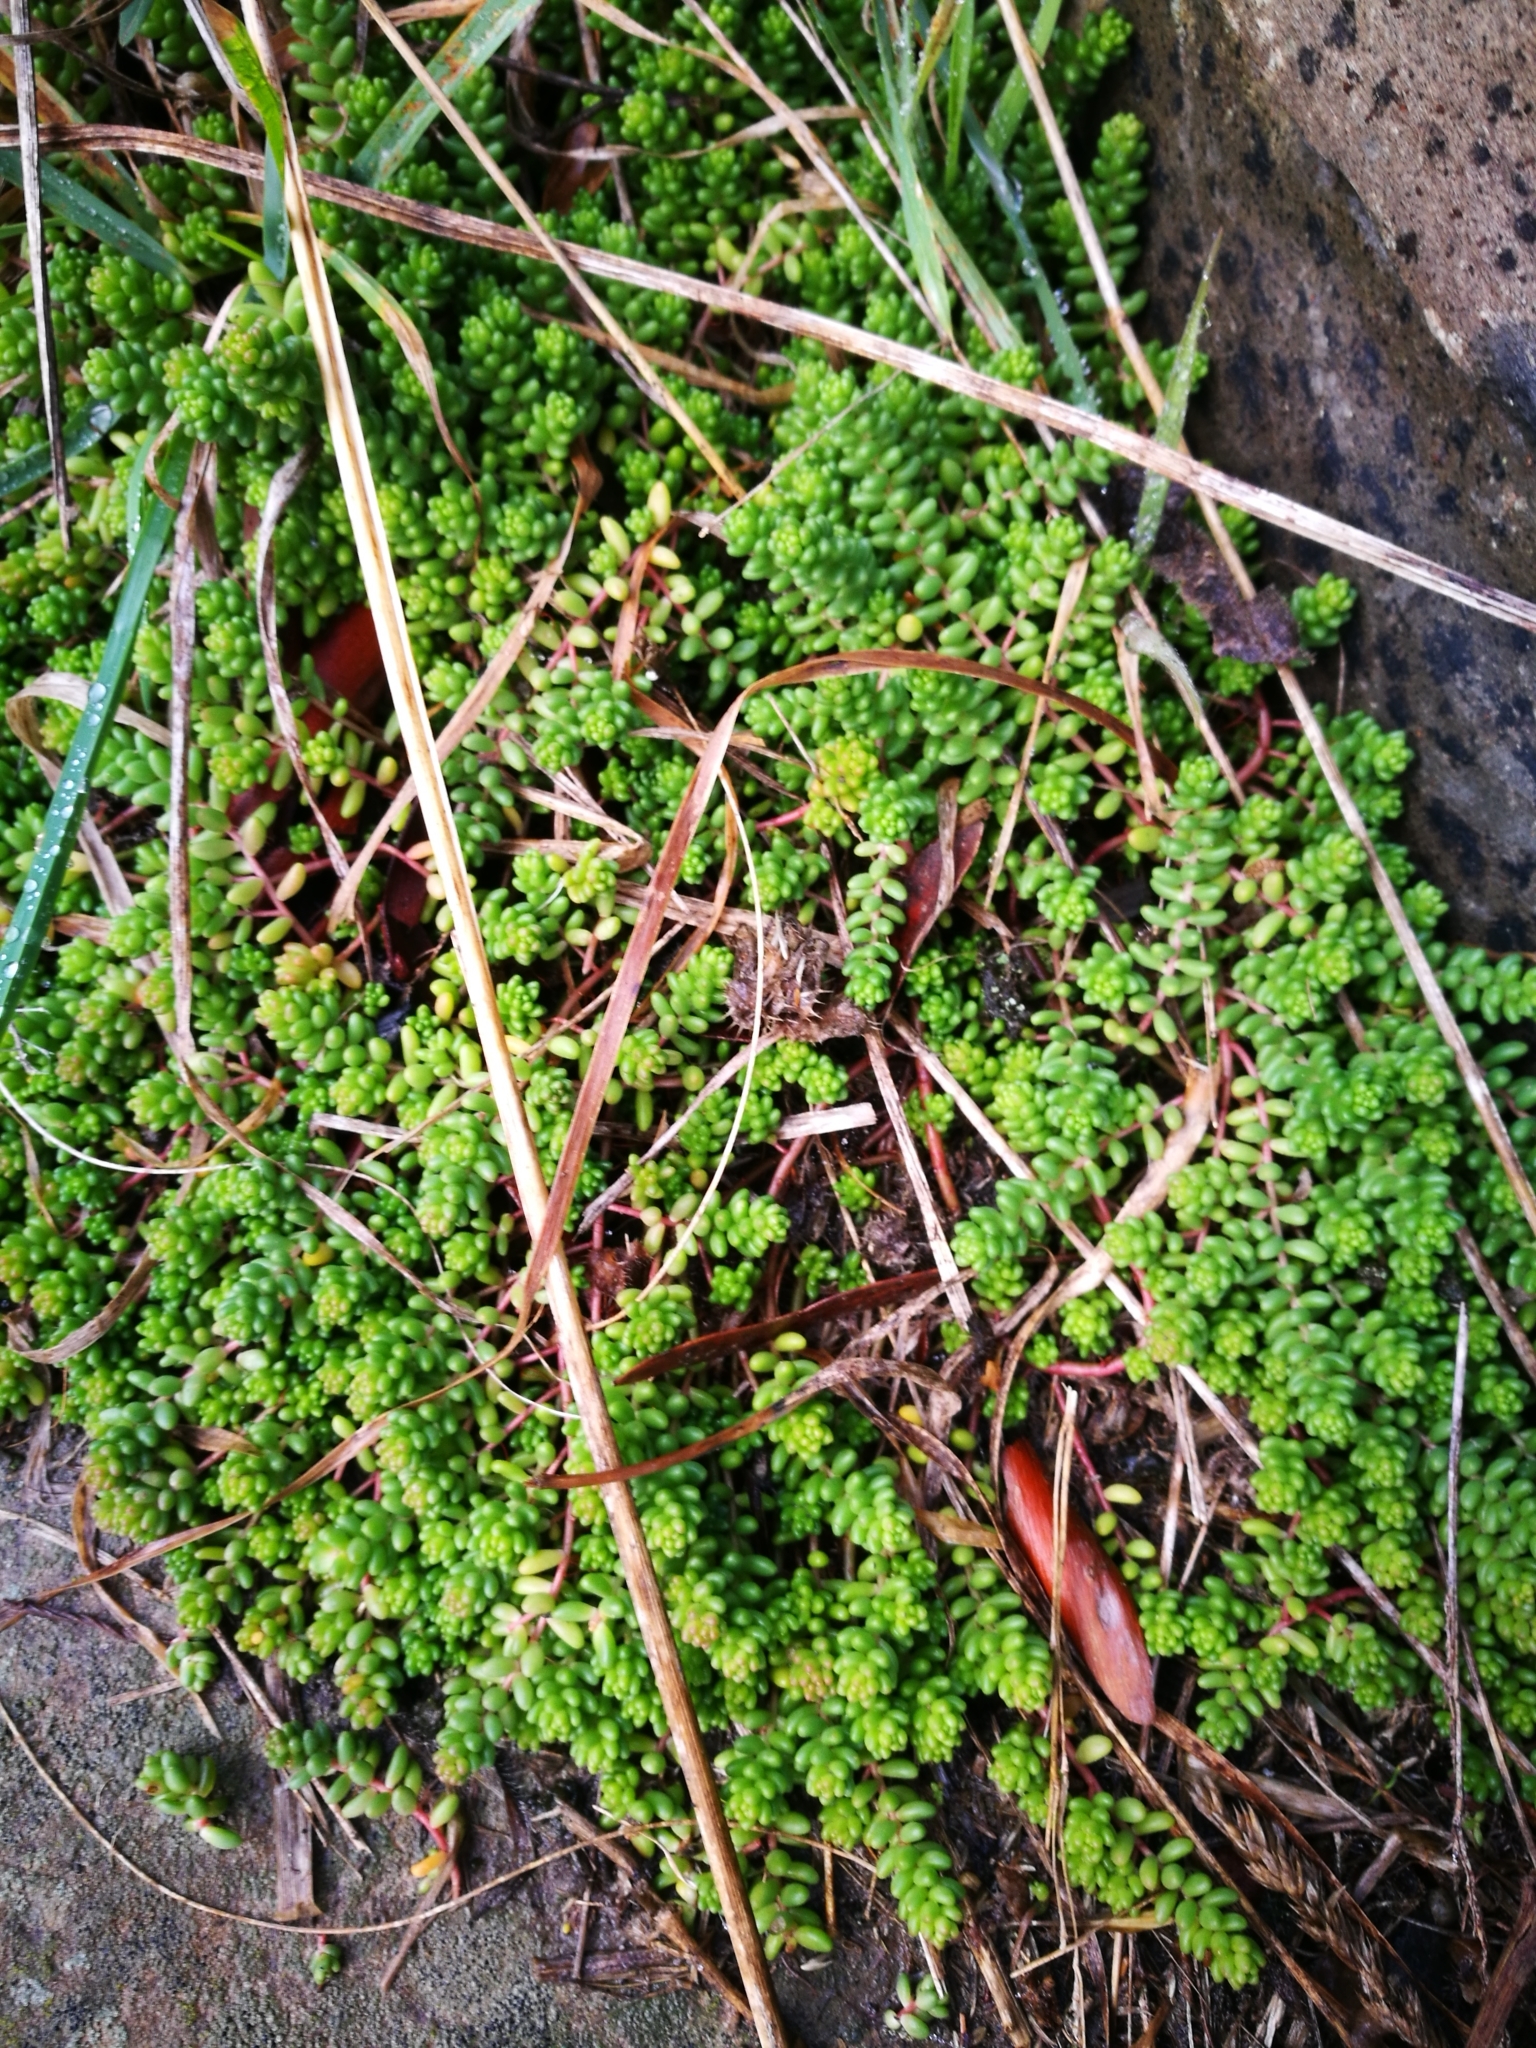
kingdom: Plantae
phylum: Tracheophyta
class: Magnoliopsida
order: Saxifragales
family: Crassulaceae
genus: Sedum
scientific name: Sedum album
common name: White stonecrop
